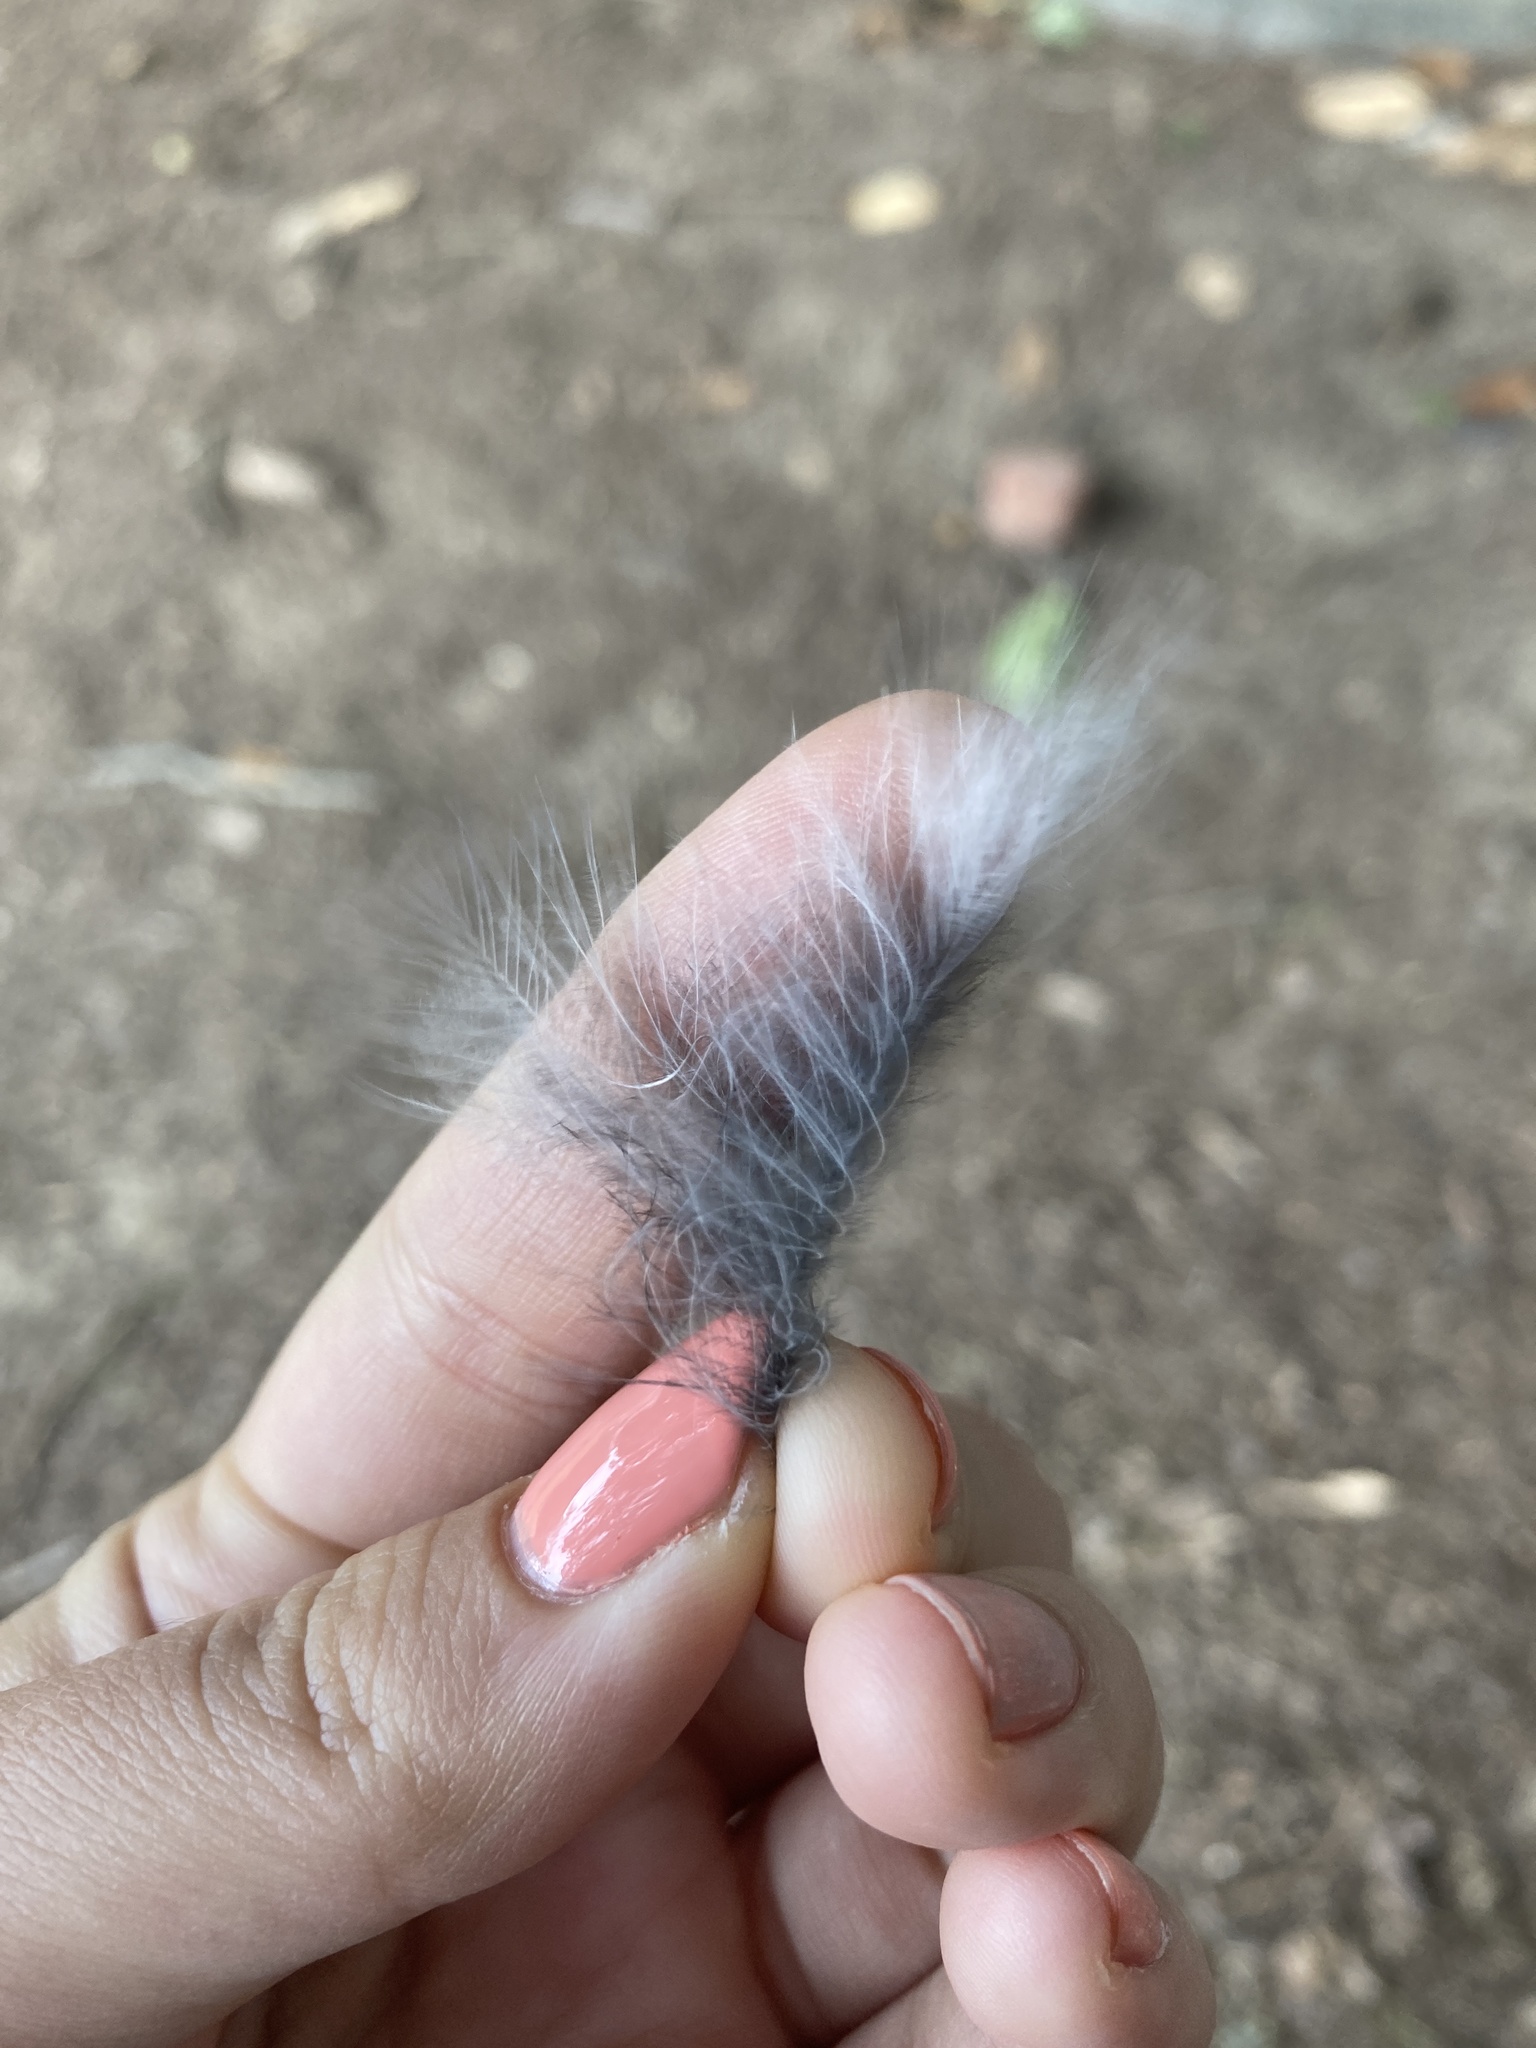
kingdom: Animalia
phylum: Chordata
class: Aves
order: Passeriformes
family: Corvidae
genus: Cyanocitta
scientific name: Cyanocitta cristata
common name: Blue jay
